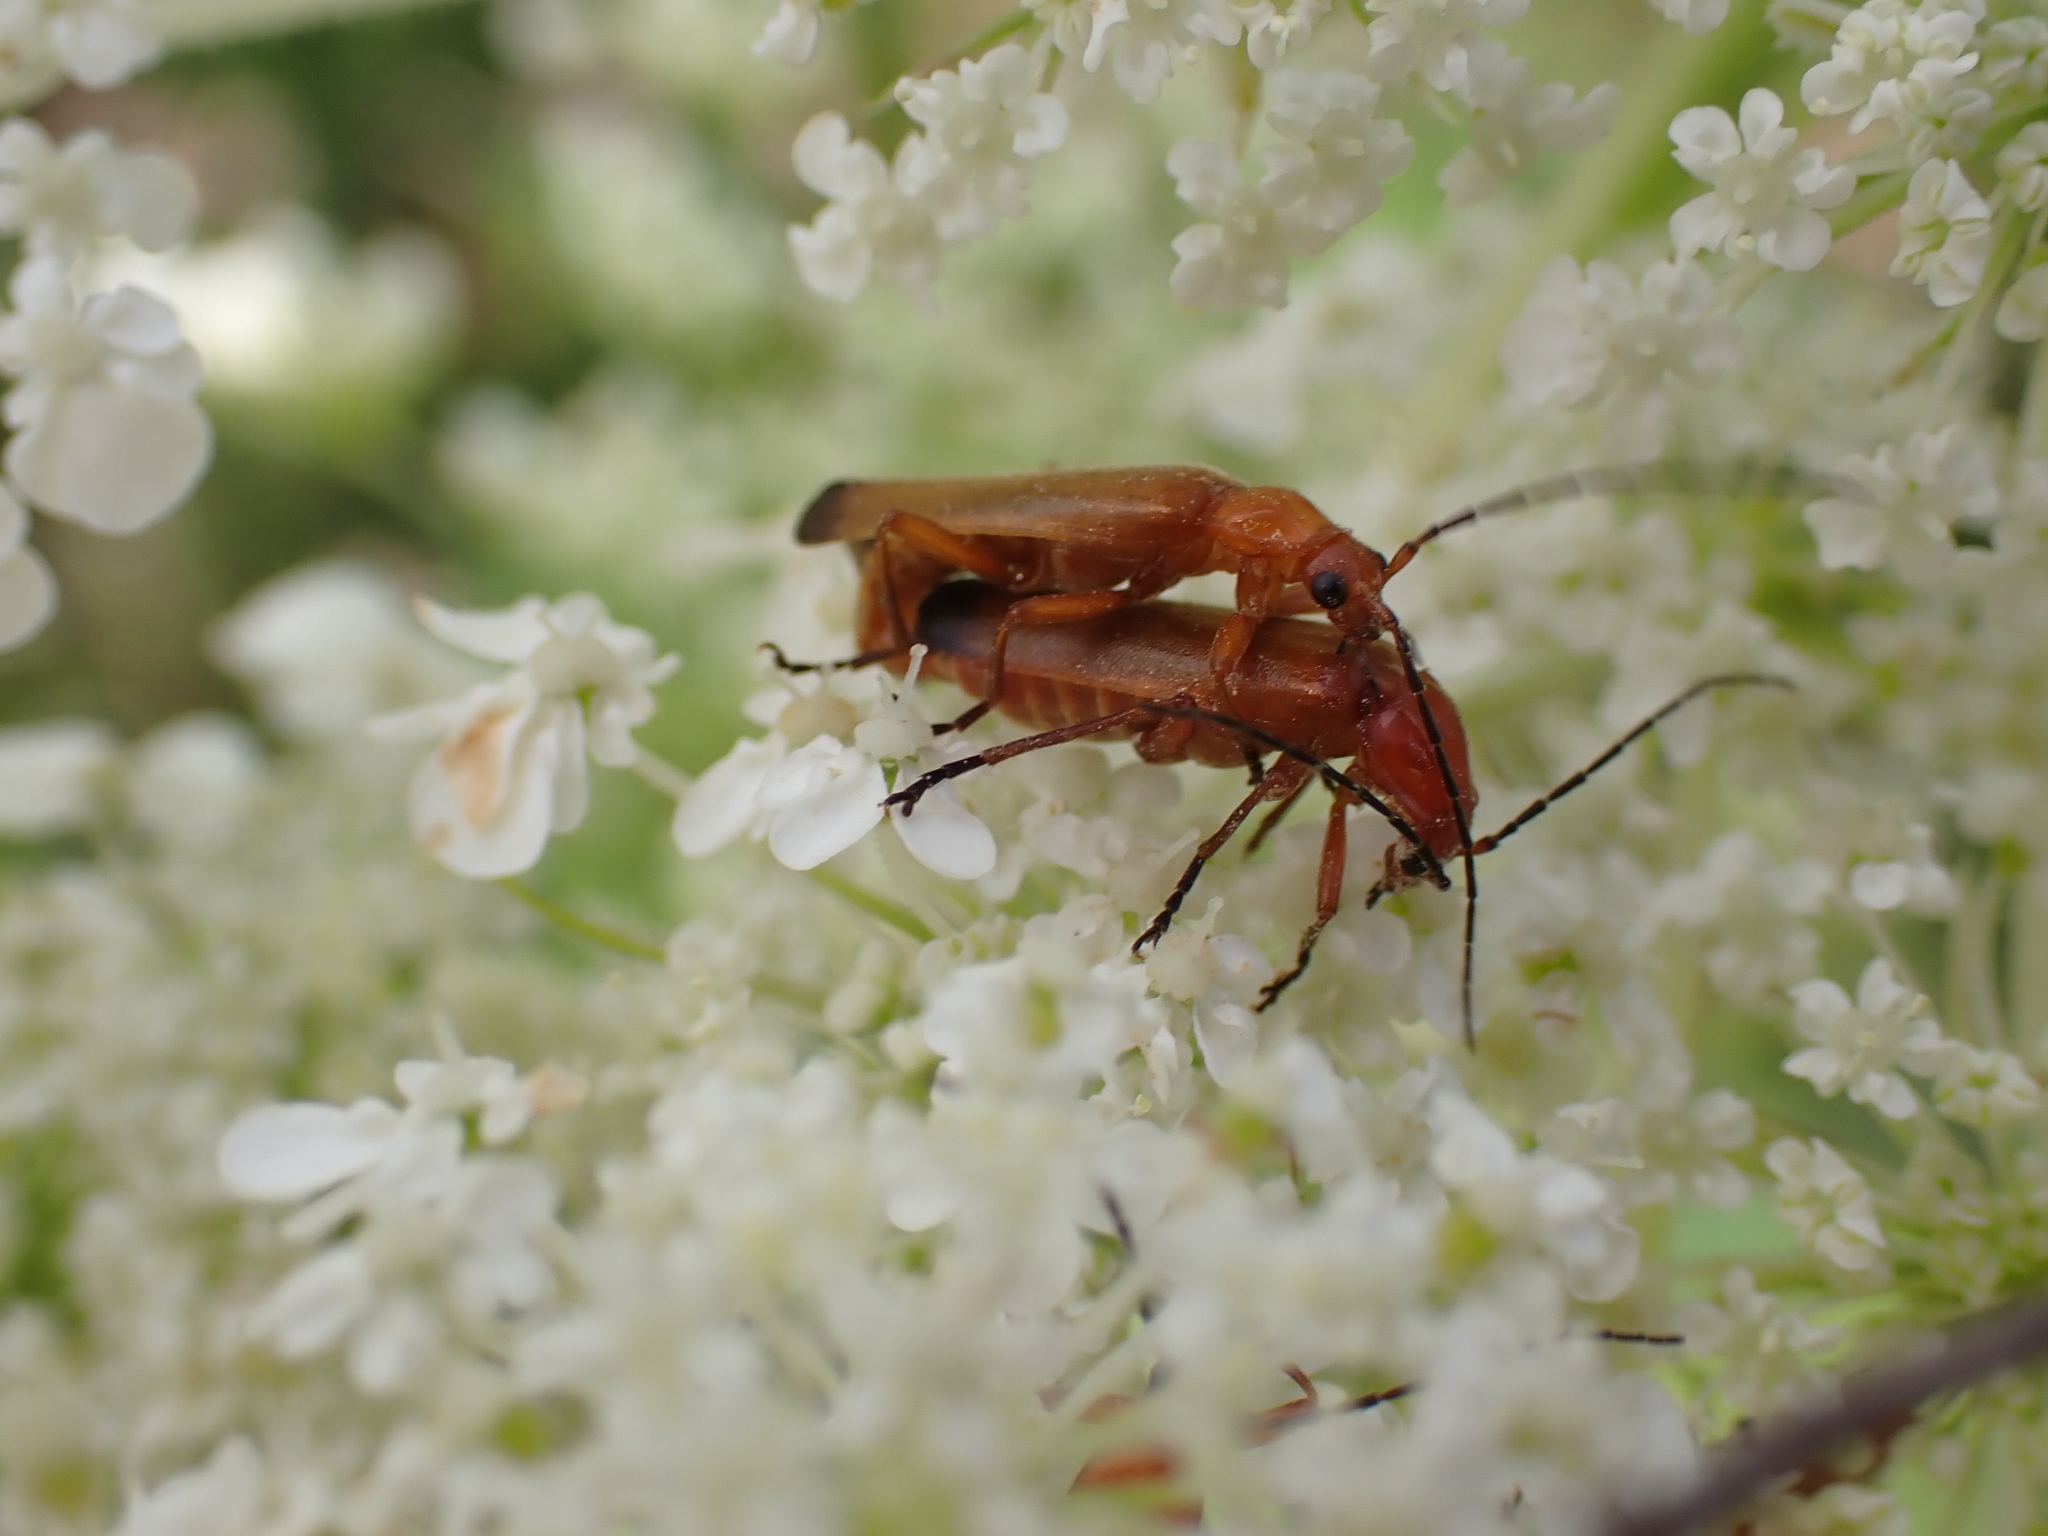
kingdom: Animalia
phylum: Arthropoda
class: Insecta
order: Coleoptera
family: Cantharidae
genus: Rhagonycha
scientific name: Rhagonycha fulva
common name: Common red soldier beetle
